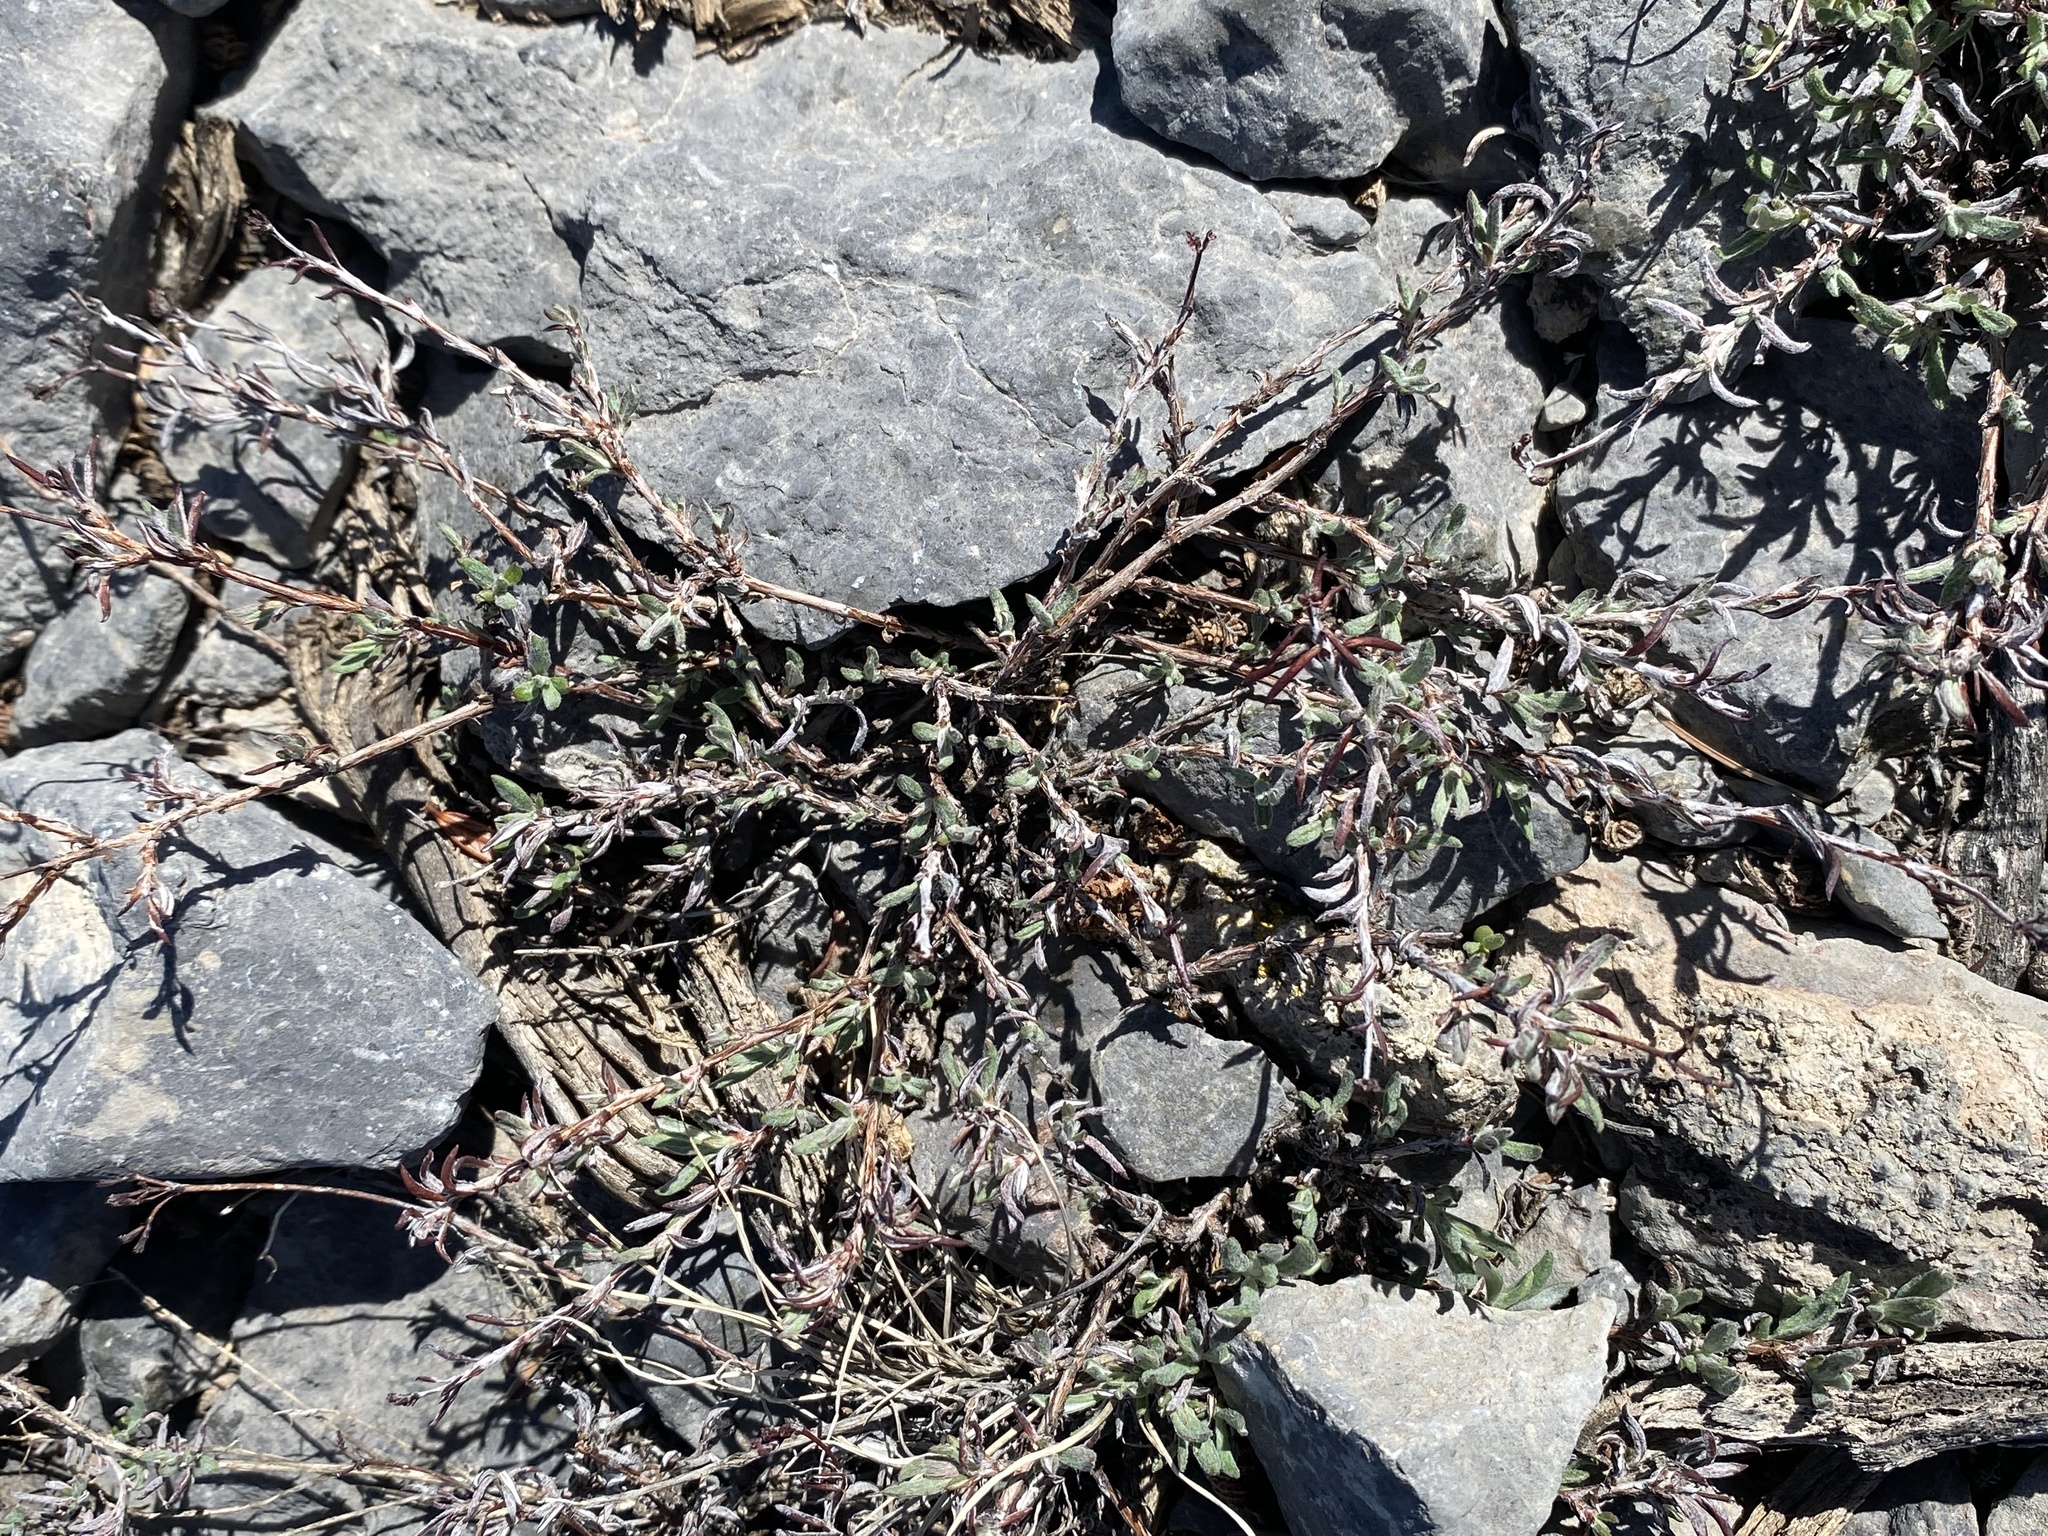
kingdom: Plantae
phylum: Tracheophyta
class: Magnoliopsida
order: Caryophyllales
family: Polygonaceae
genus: Eriogonum
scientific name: Eriogonum microtheca
